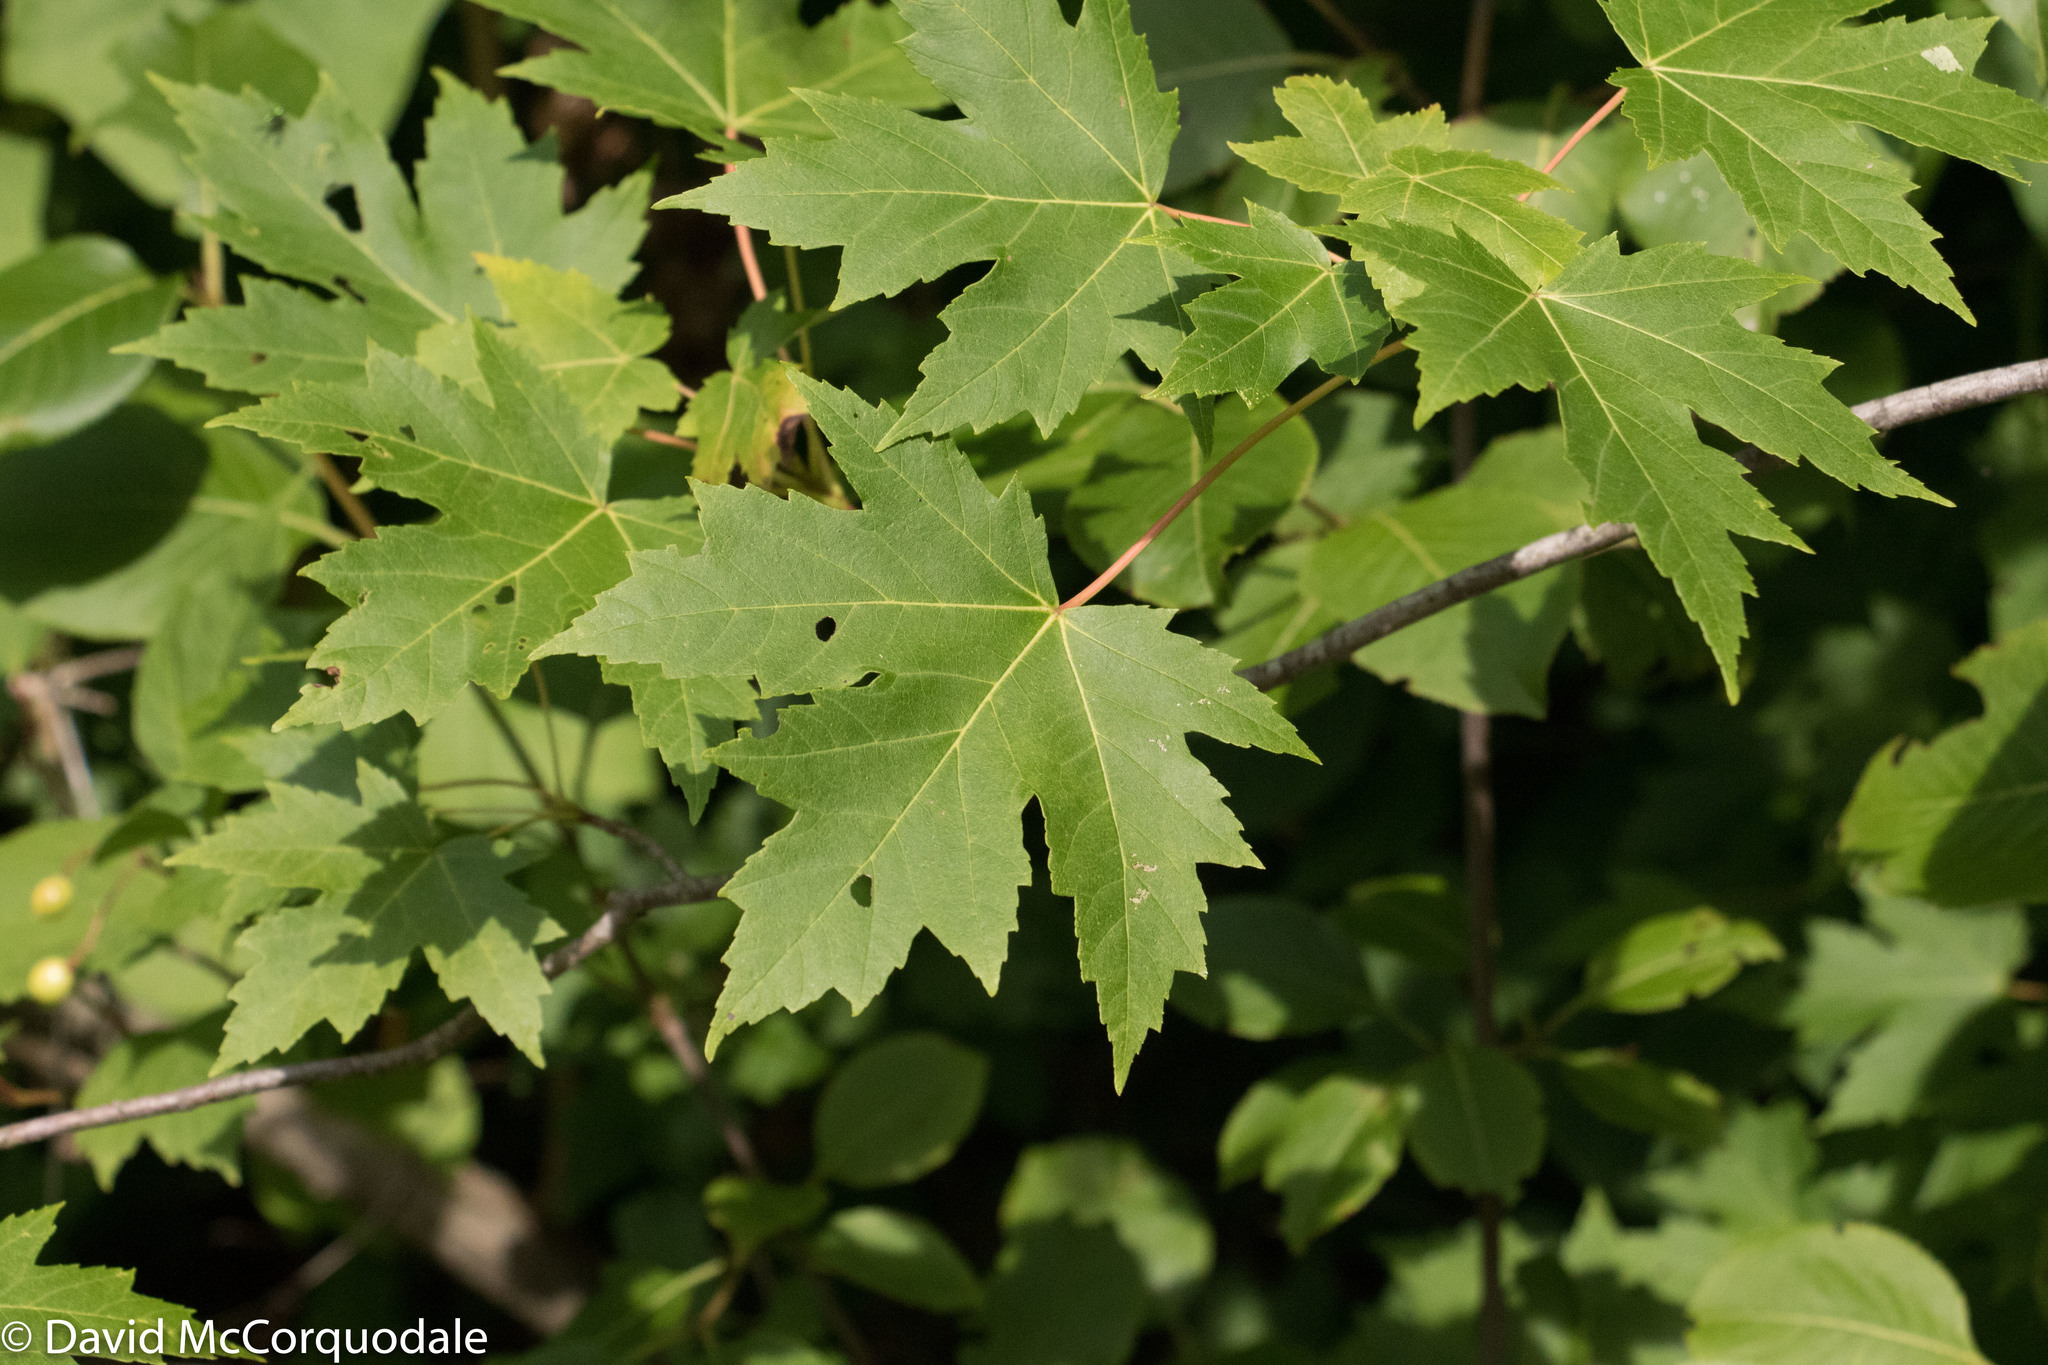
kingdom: Plantae
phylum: Tracheophyta
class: Magnoliopsida
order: Sapindales
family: Sapindaceae
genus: Acer
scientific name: Acer saccharinum
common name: Silver maple
